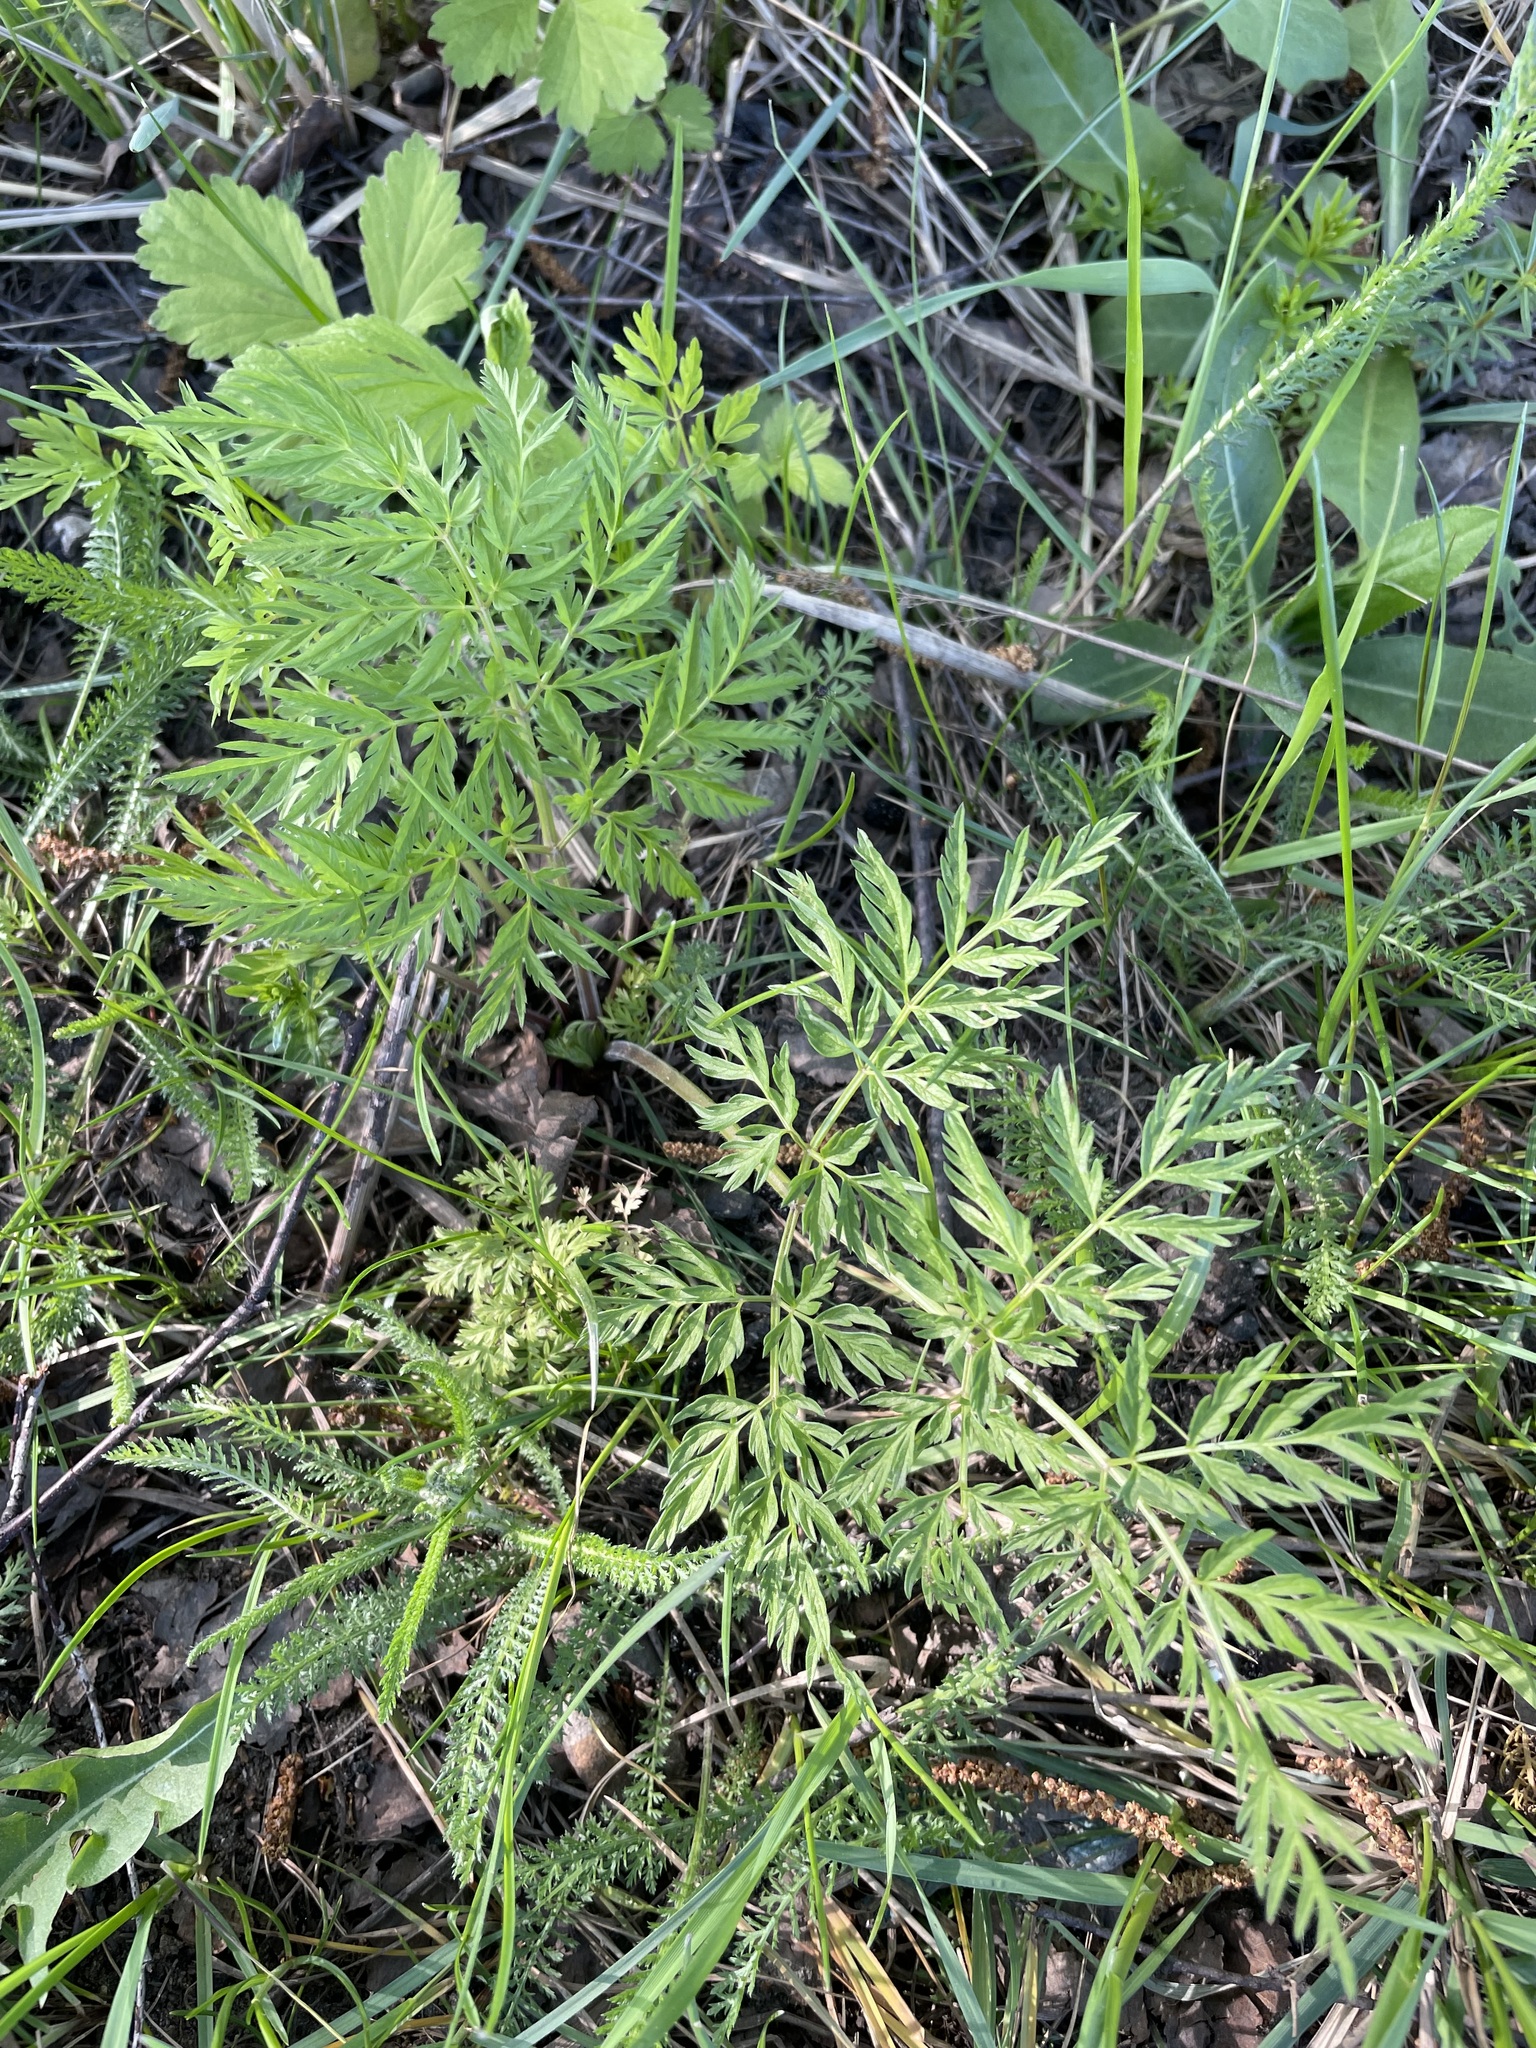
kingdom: Plantae
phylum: Tracheophyta
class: Magnoliopsida
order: Apiales
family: Apiaceae
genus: Anthriscus
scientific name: Anthriscus sylvestris
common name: Cow parsley
